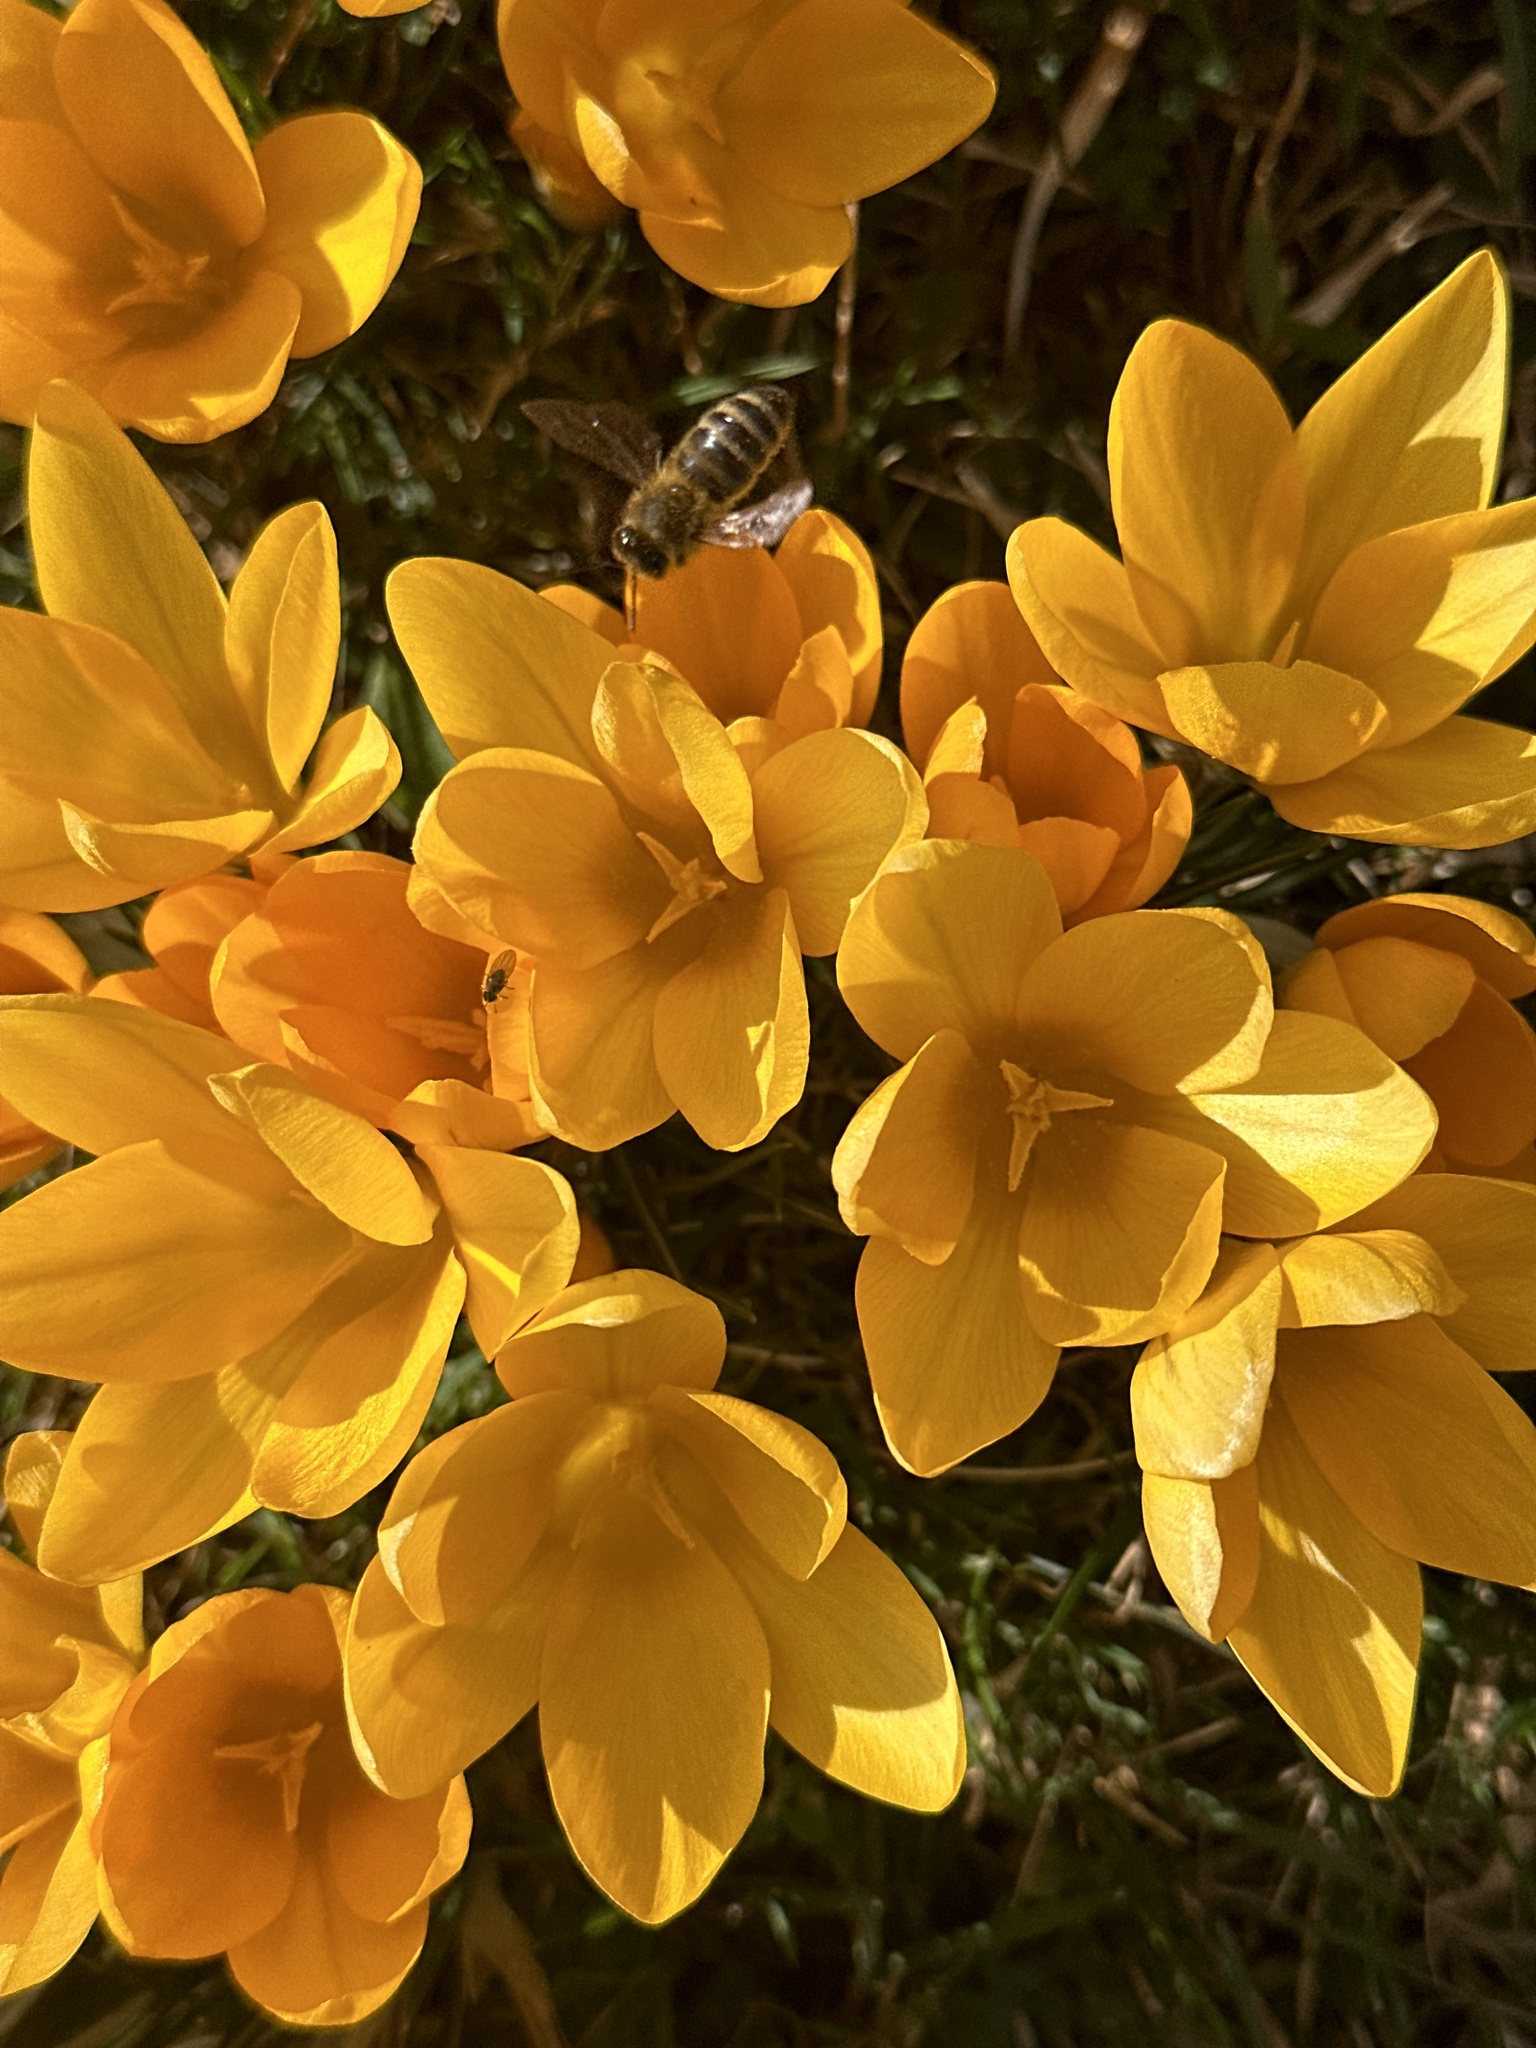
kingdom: Animalia
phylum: Arthropoda
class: Insecta
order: Hymenoptera
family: Apidae
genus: Apis
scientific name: Apis mellifera
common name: Honey bee
